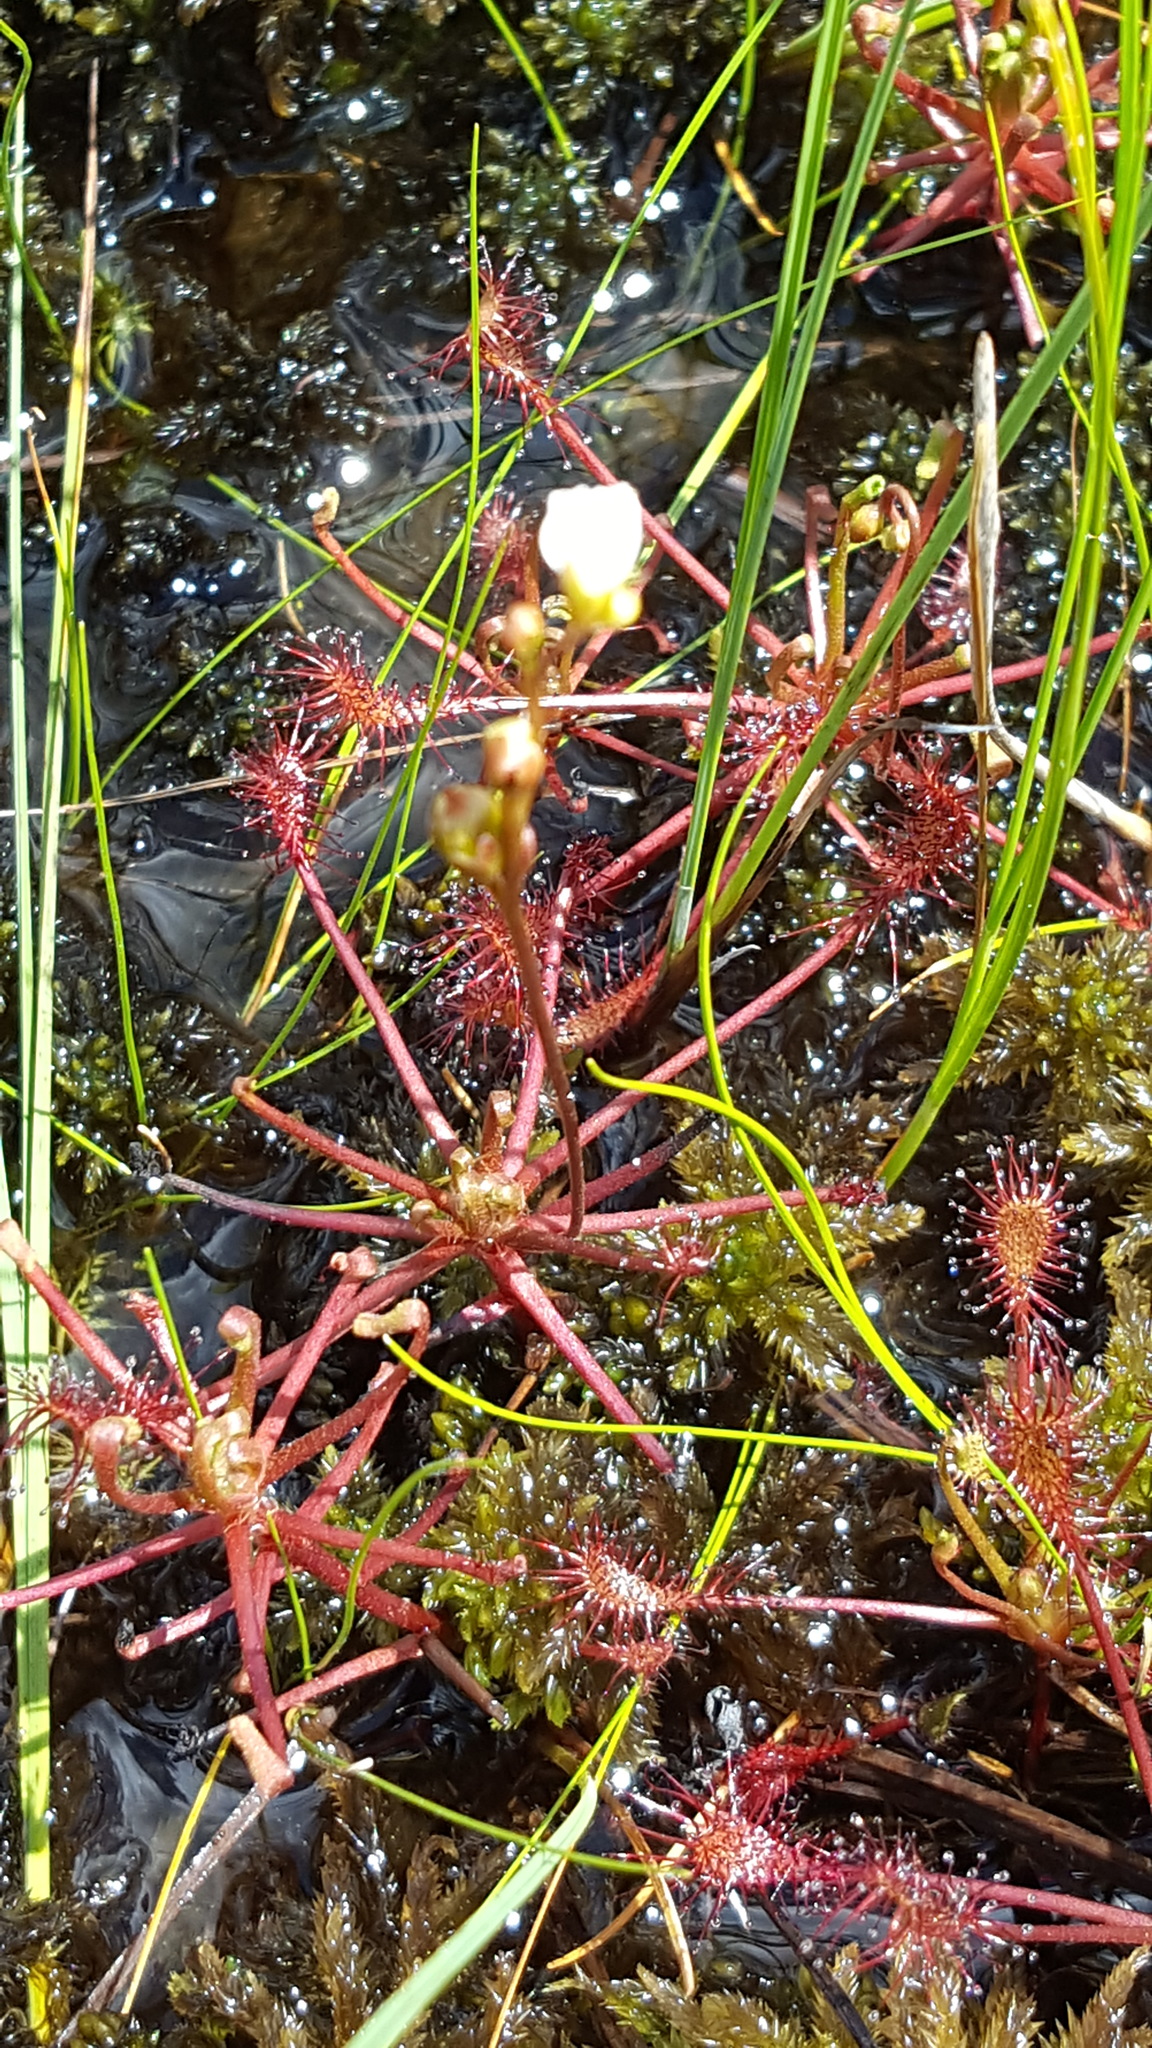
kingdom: Plantae
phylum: Tracheophyta
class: Magnoliopsida
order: Caryophyllales
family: Droseraceae
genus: Drosera
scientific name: Drosera intermedia
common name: Oblong-leaved sundew
